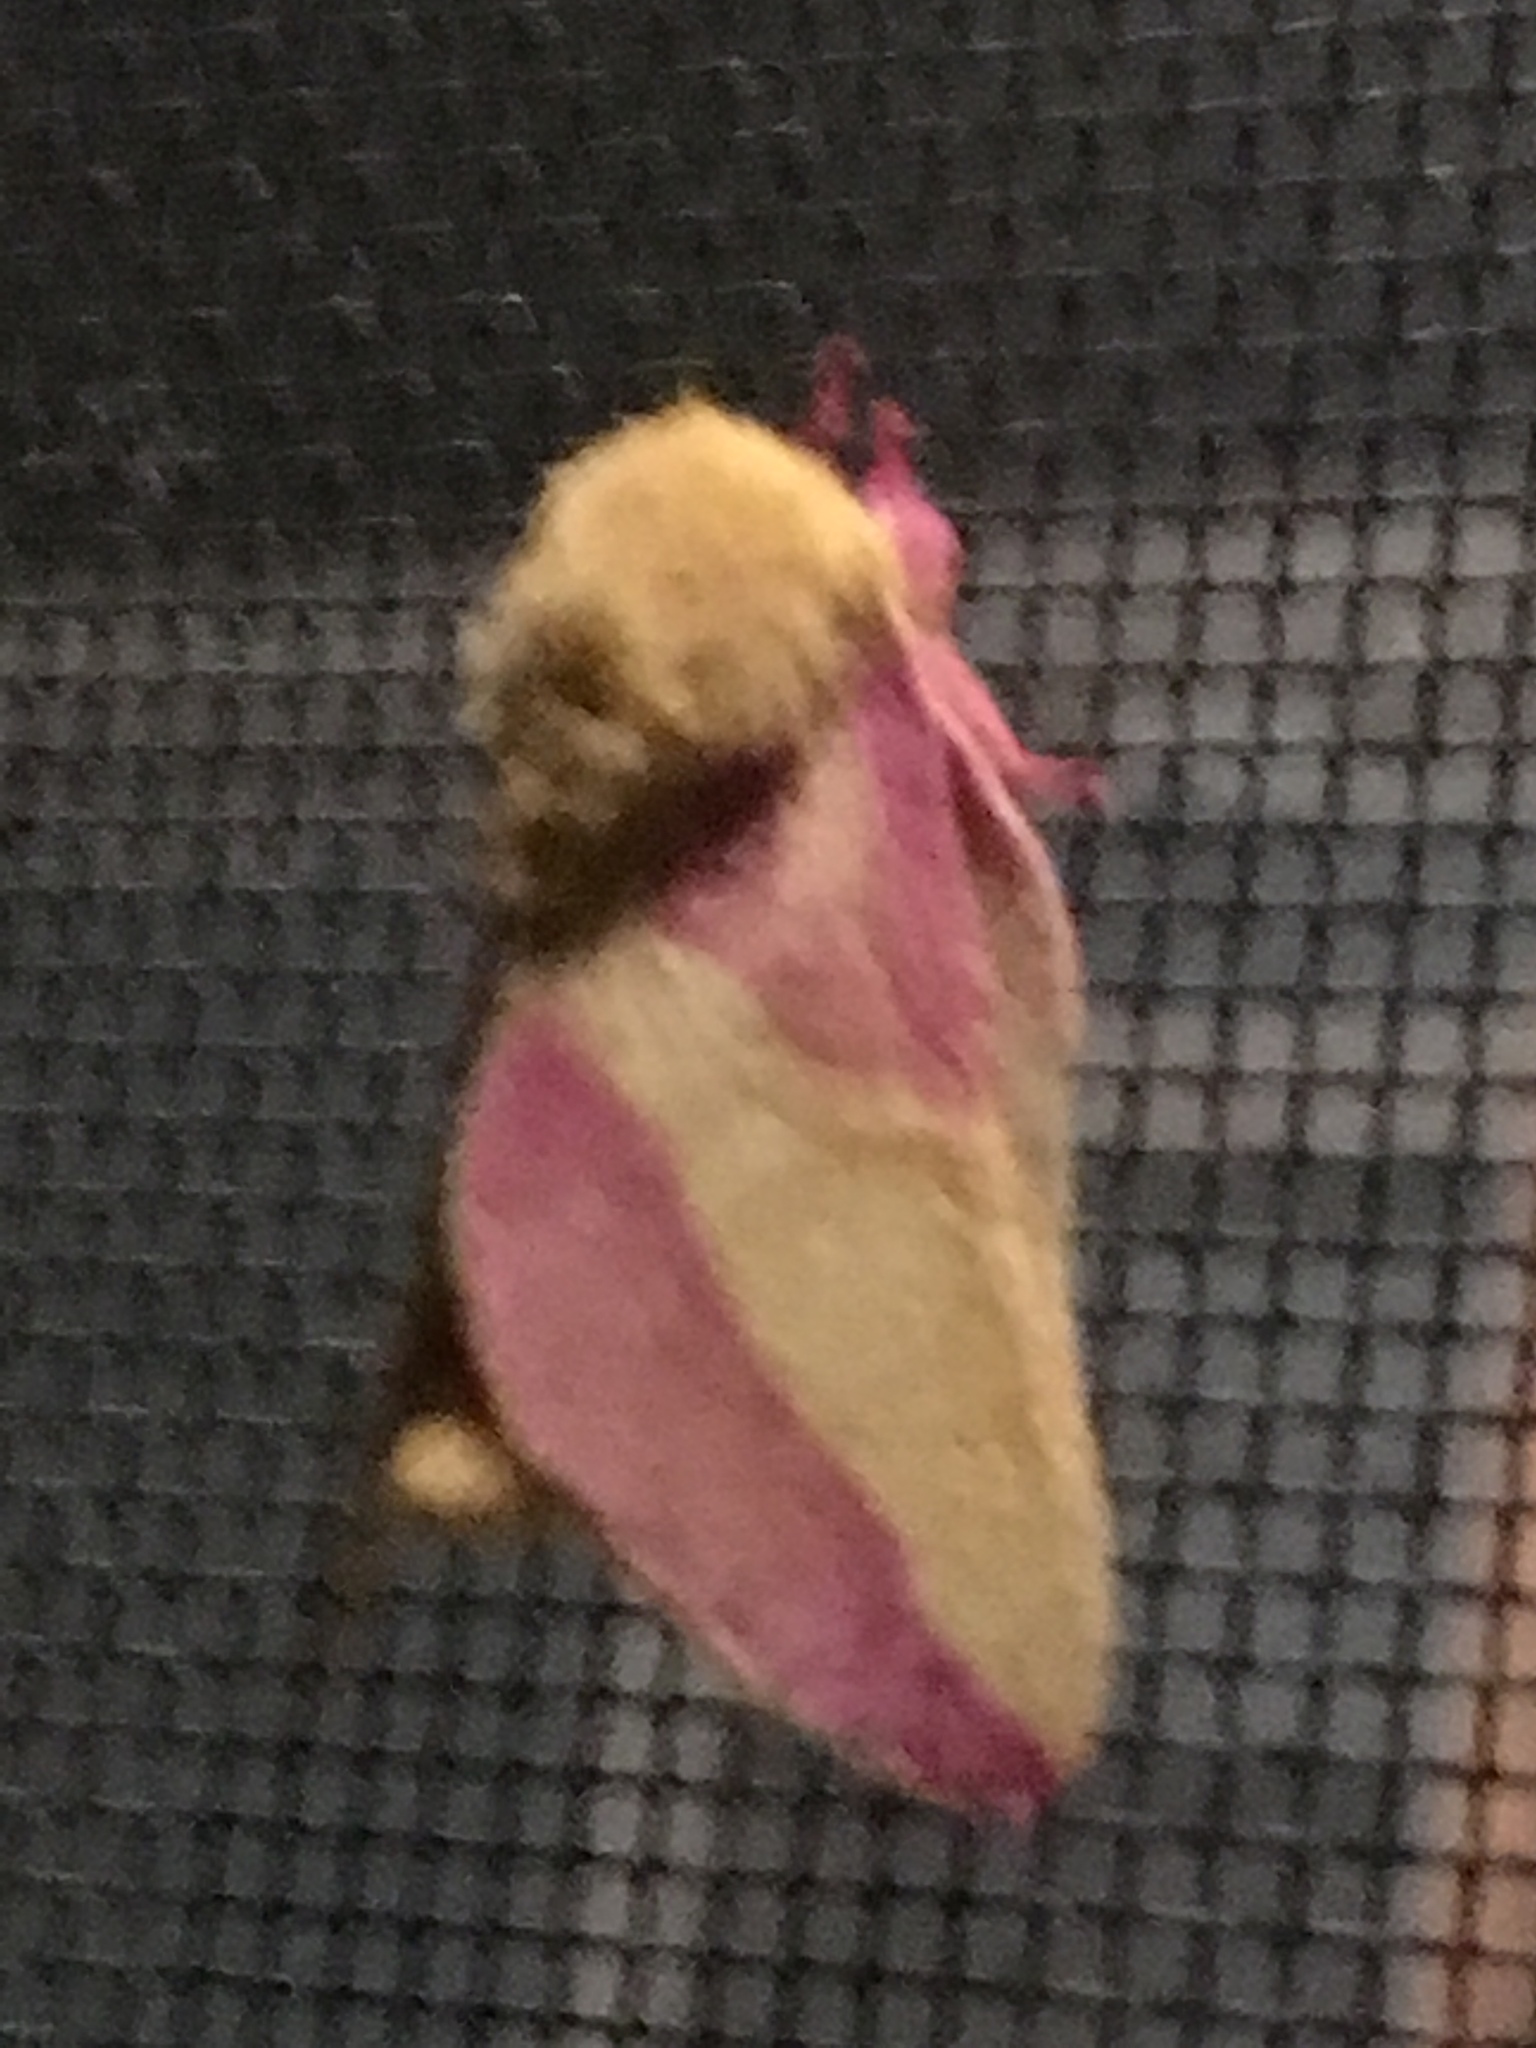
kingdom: Animalia
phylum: Arthropoda
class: Insecta
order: Lepidoptera
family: Saturniidae
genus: Dryocampa
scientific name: Dryocampa rubicunda
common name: Rosy maple moth
